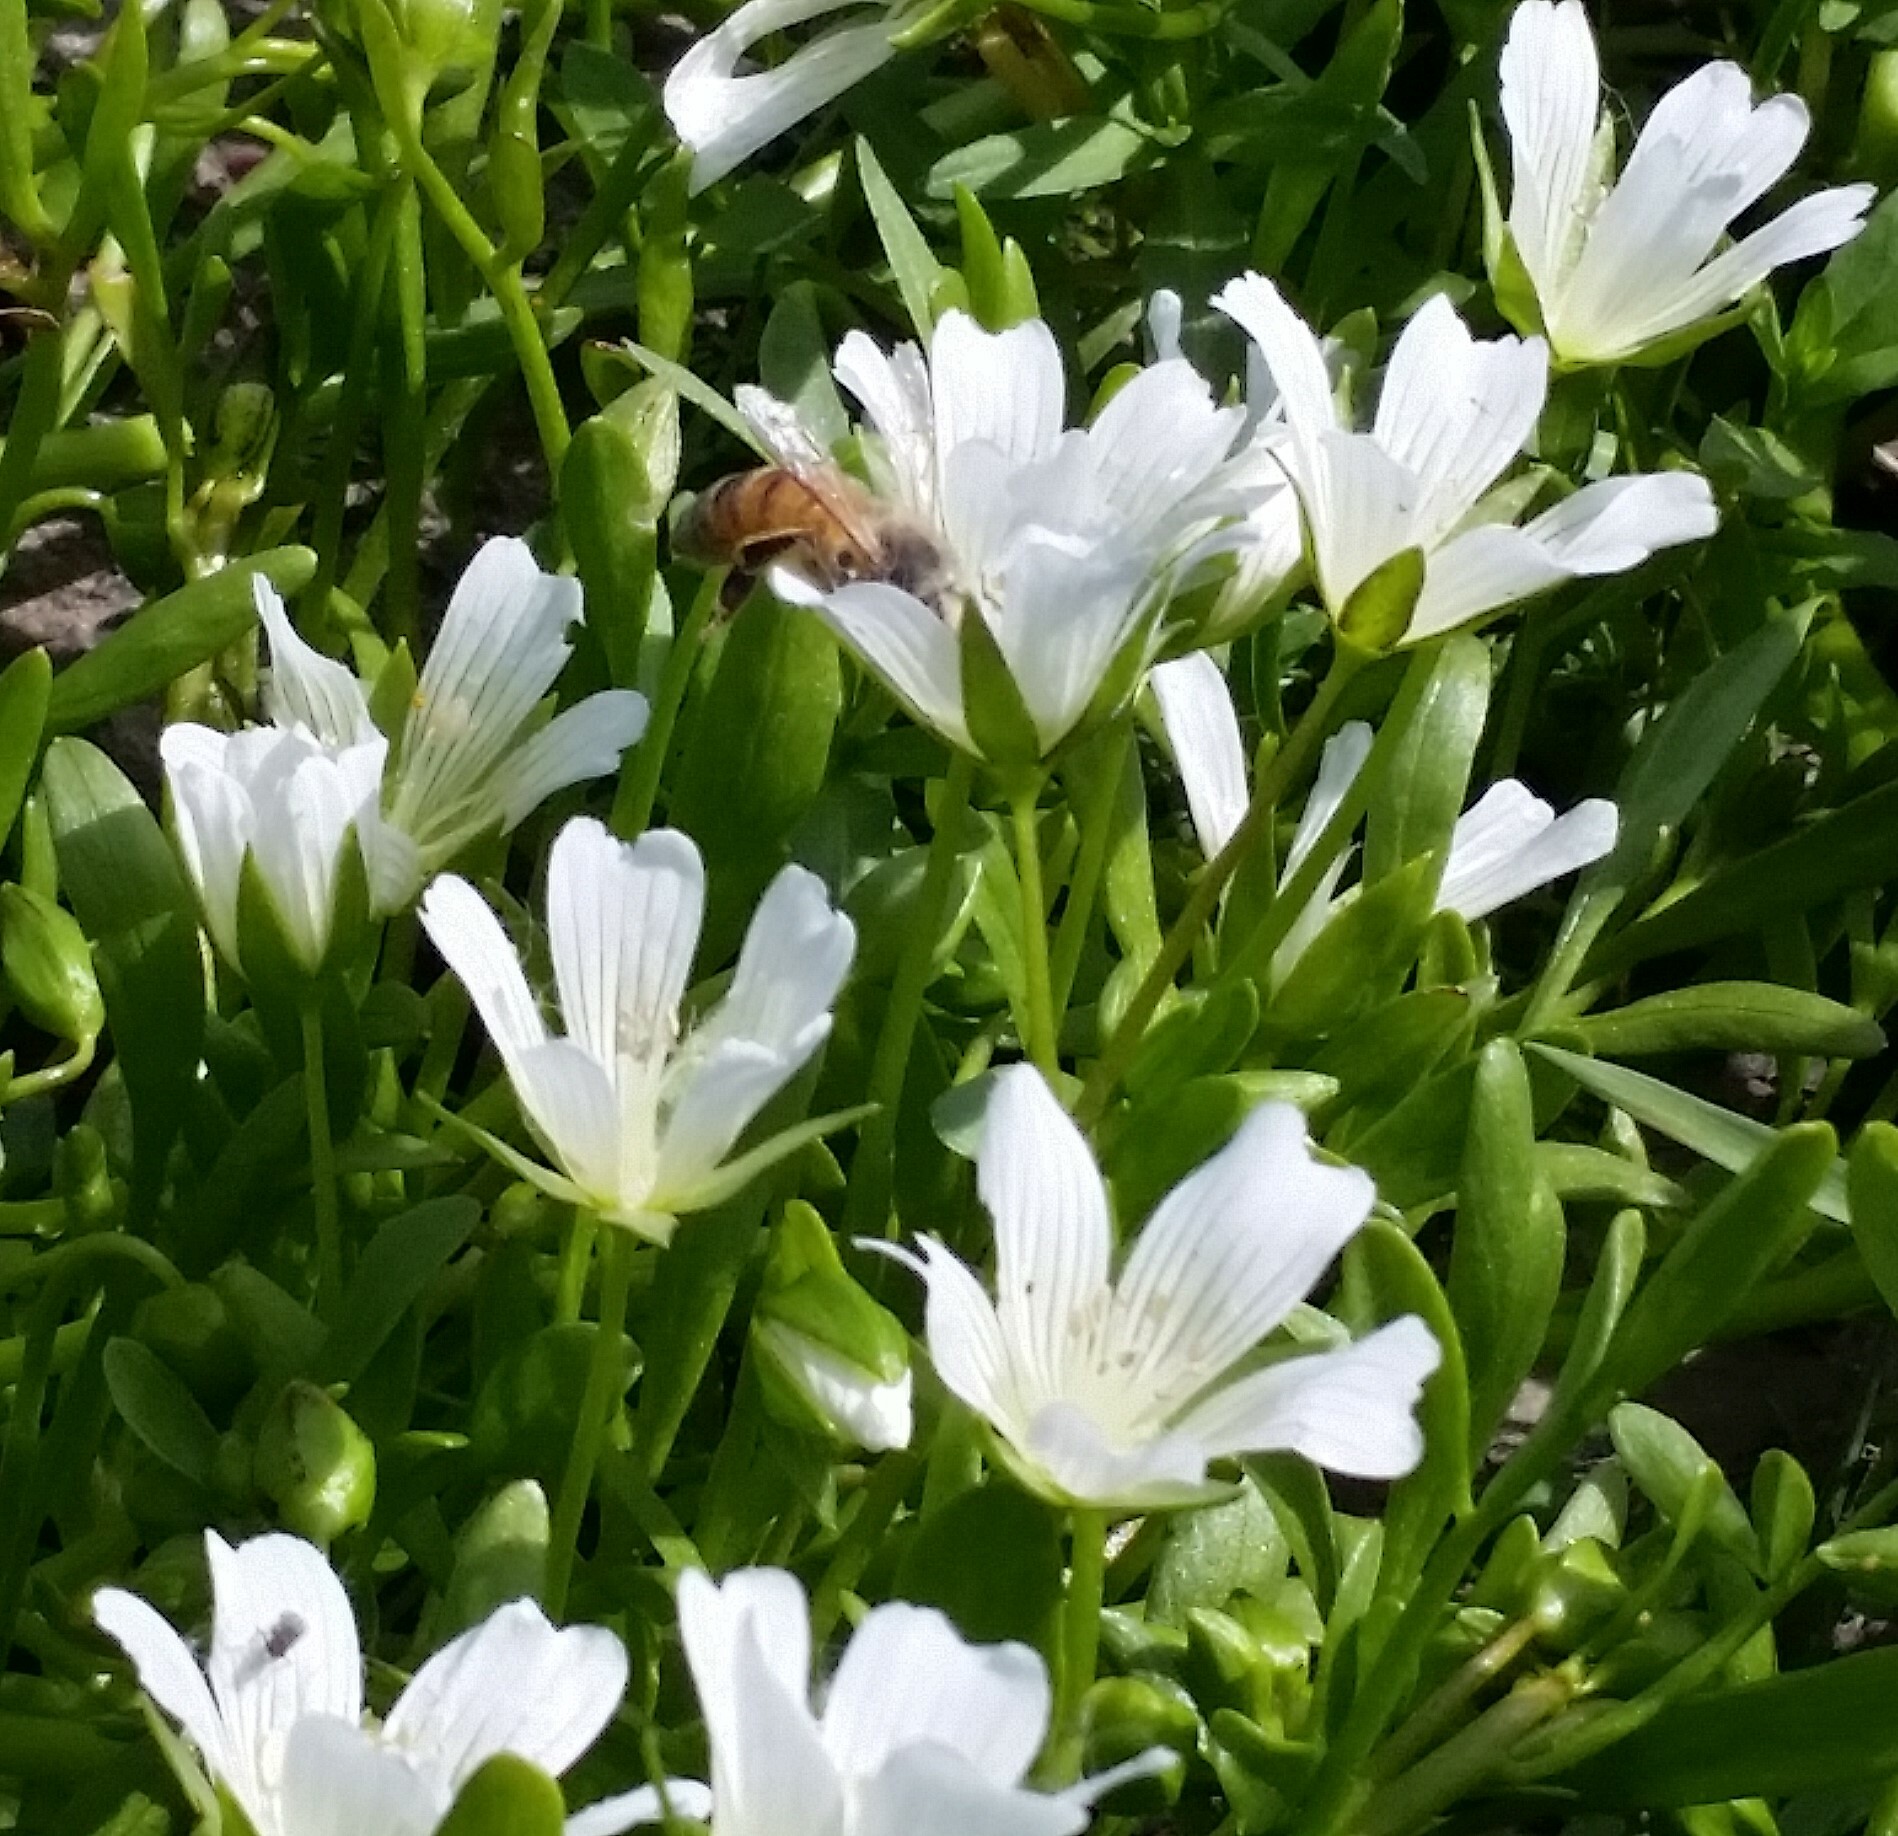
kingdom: Animalia
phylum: Arthropoda
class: Insecta
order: Hymenoptera
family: Apidae
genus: Apis
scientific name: Apis mellifera
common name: Honey bee
